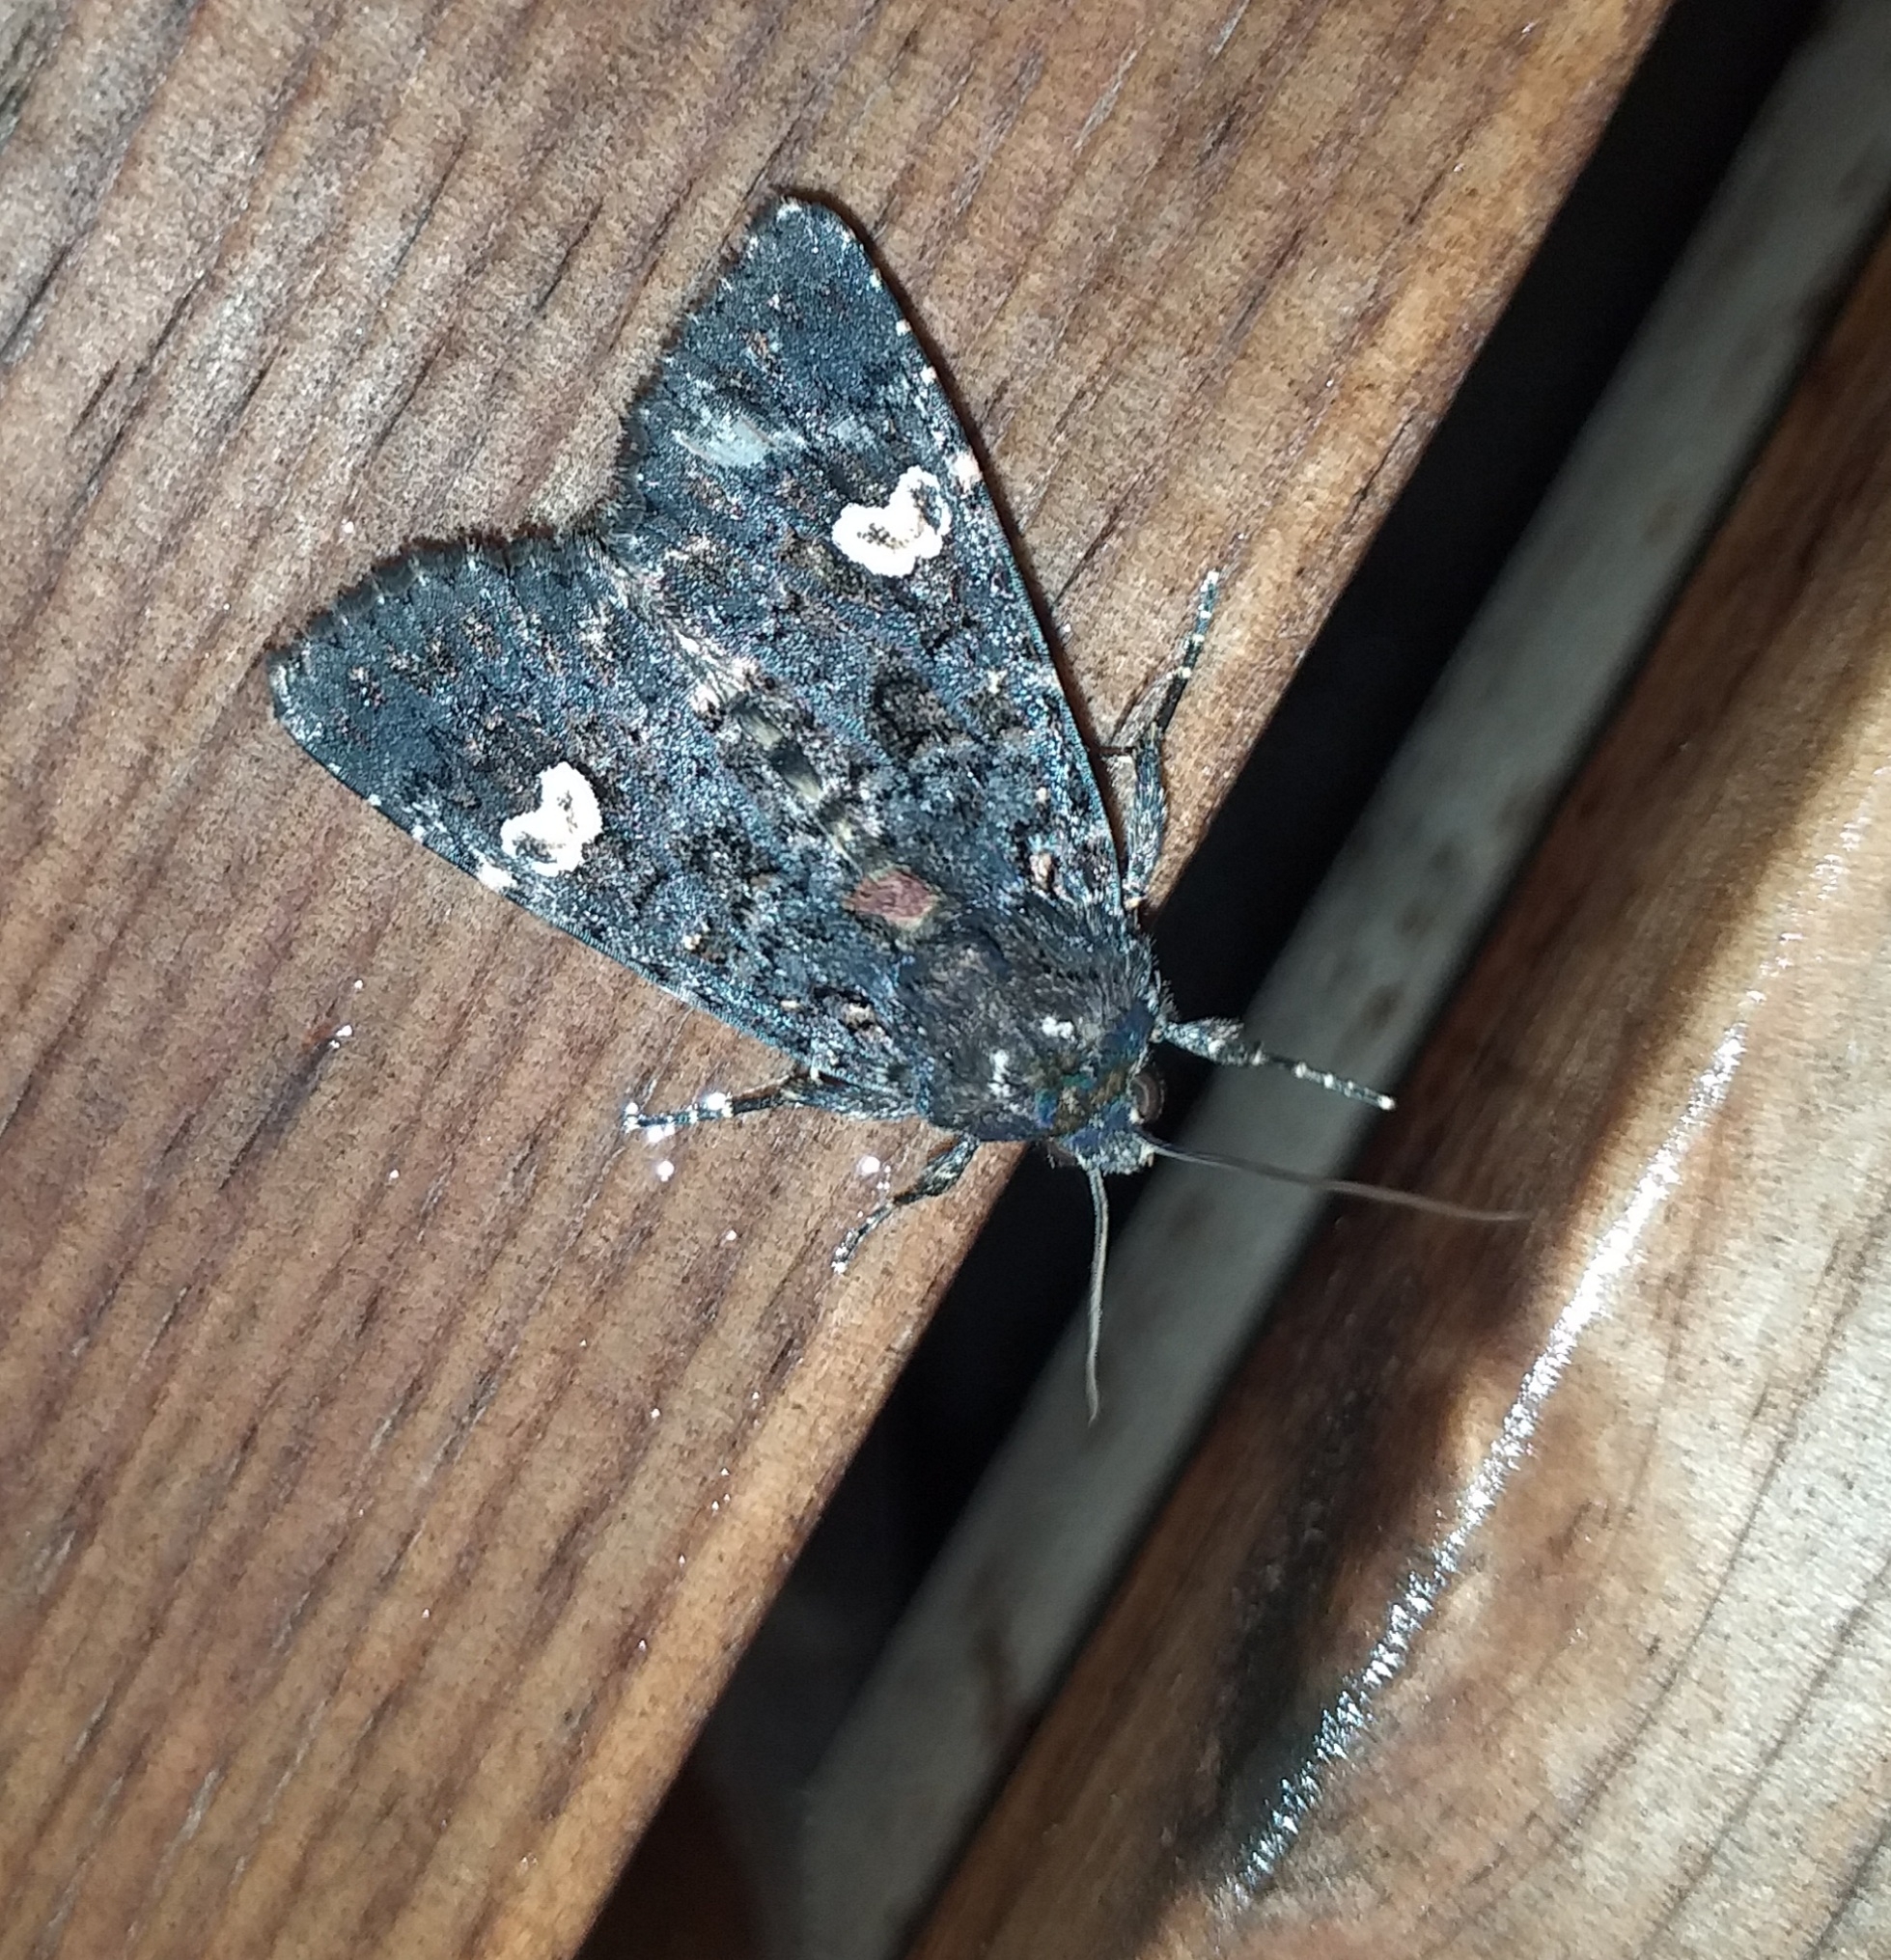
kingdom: Animalia
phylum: Arthropoda
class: Insecta
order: Lepidoptera
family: Noctuidae
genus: Melanchra
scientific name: Melanchra persicariae
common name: Dot moth
